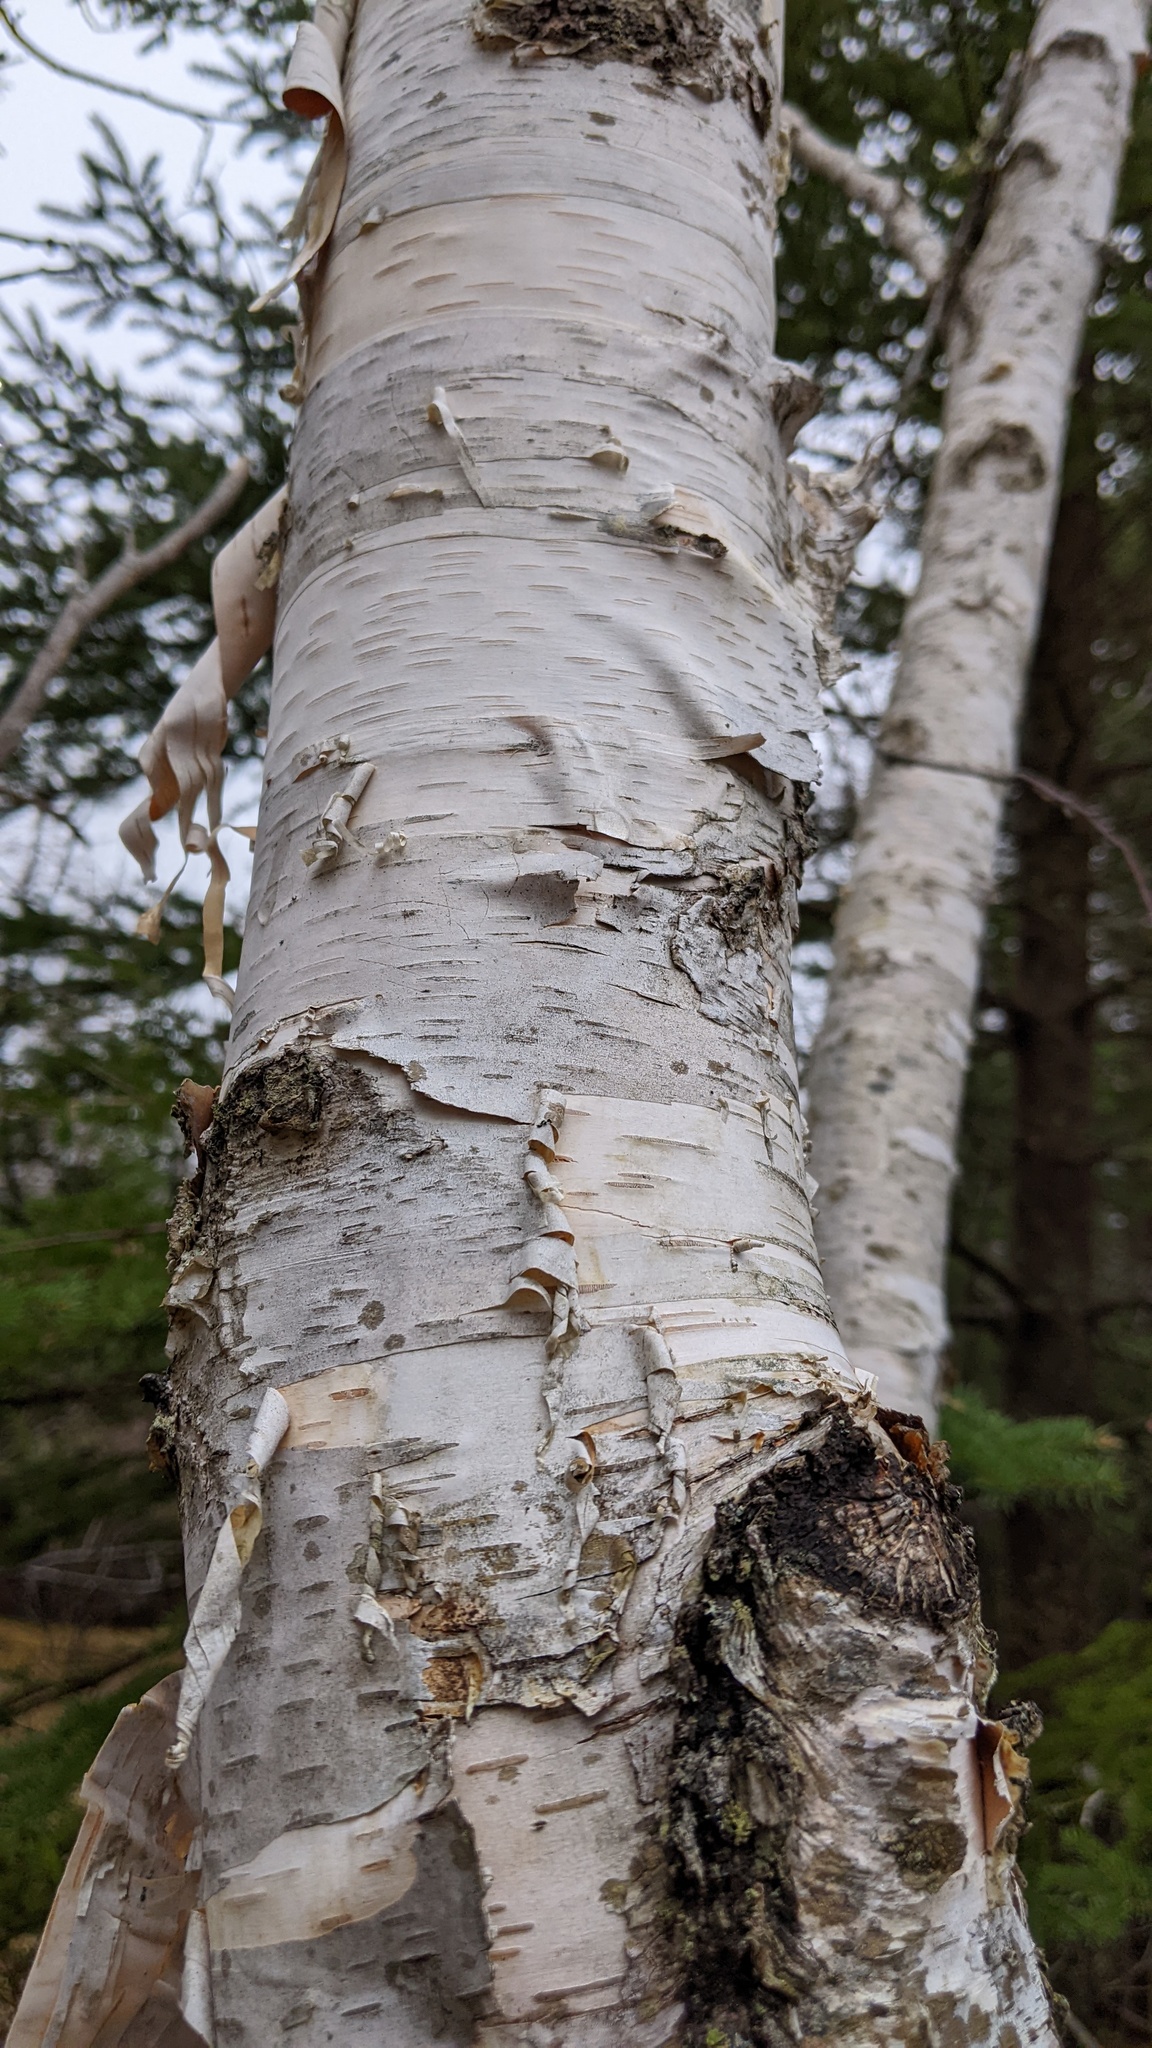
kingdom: Plantae
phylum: Tracheophyta
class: Magnoliopsida
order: Fagales
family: Betulaceae
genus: Betula
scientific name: Betula papyrifera
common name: Paper birch
